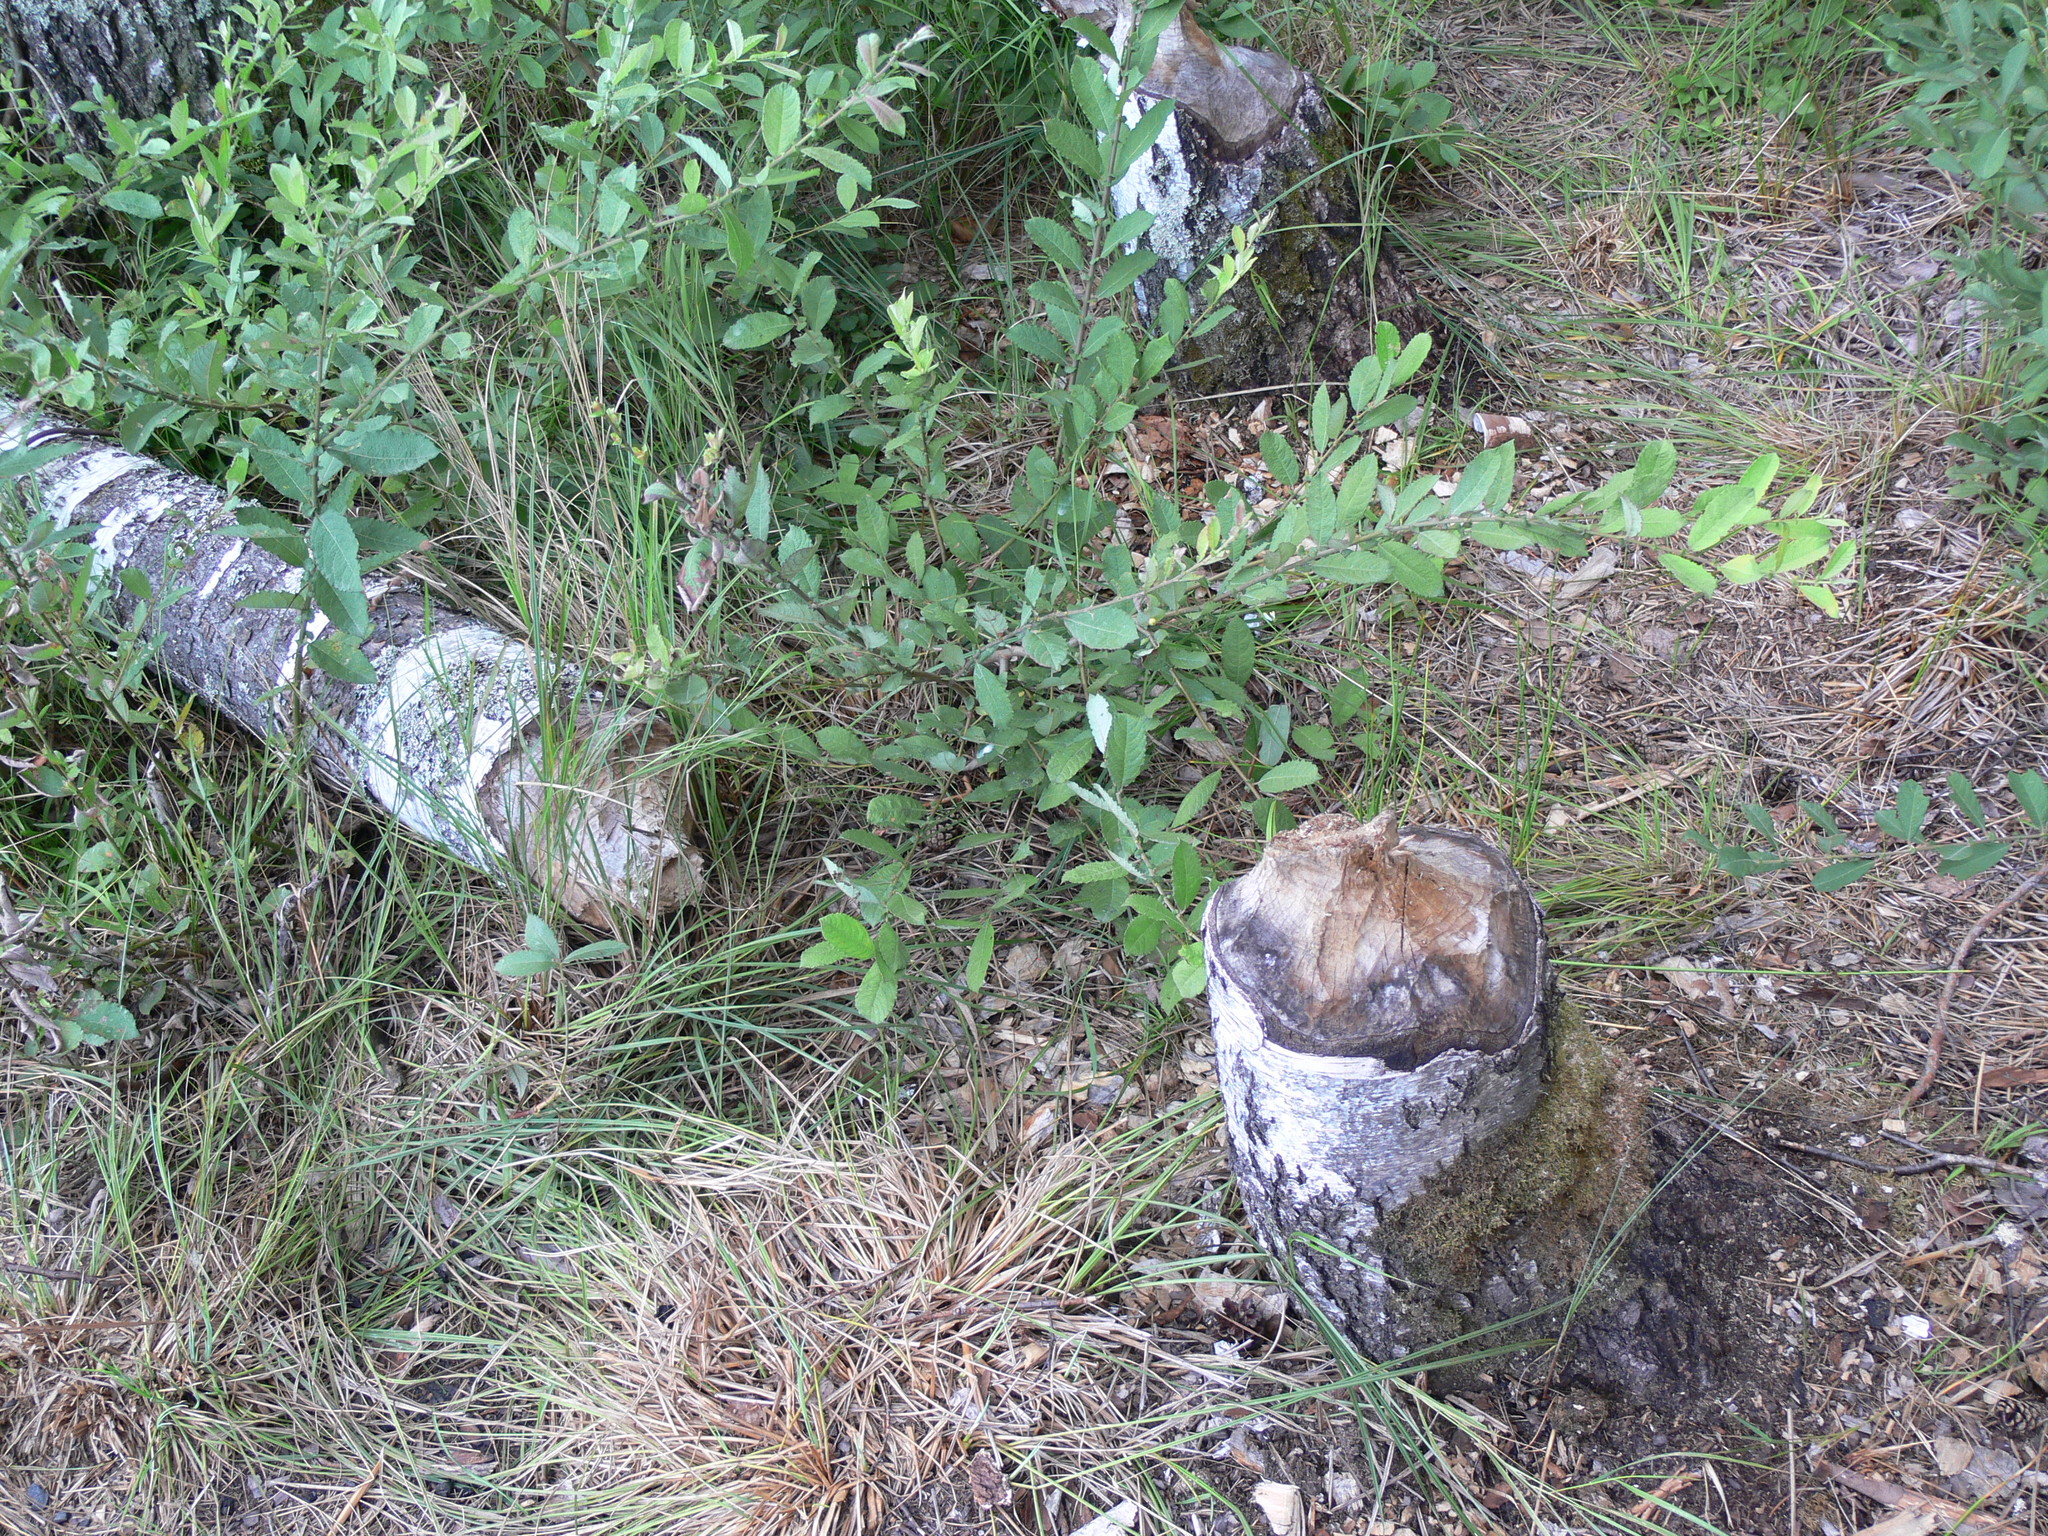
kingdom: Animalia
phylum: Chordata
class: Mammalia
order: Rodentia
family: Castoridae
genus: Castor
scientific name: Castor fiber
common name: Eurasian beaver
